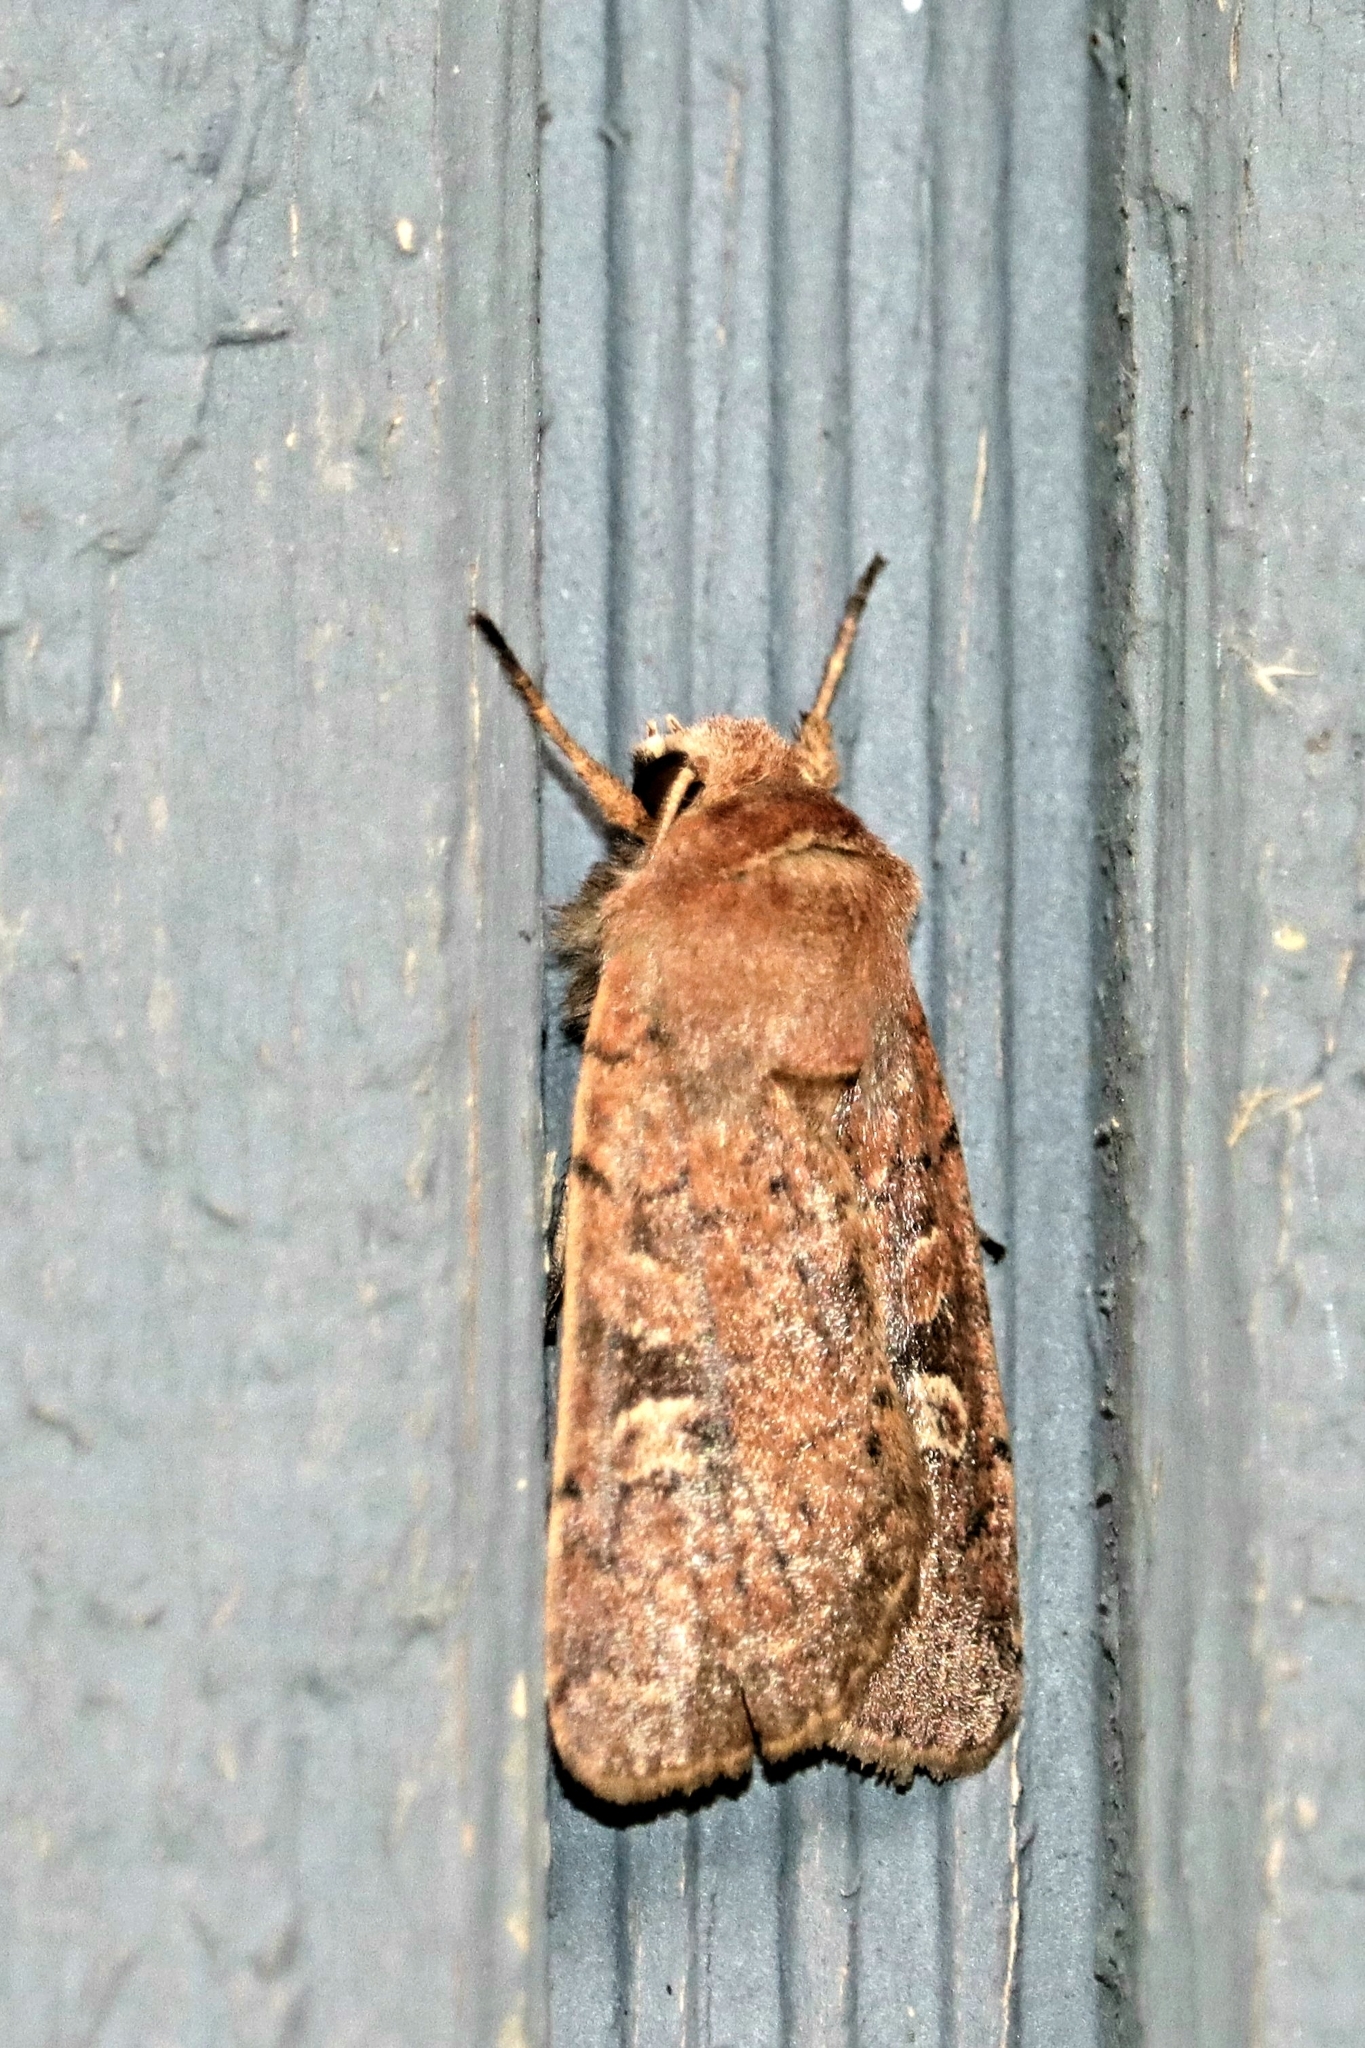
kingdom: Animalia
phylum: Arthropoda
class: Insecta
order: Lepidoptera
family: Noctuidae
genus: Xestia
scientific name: Xestia xanthographa
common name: Square-spot rustic
